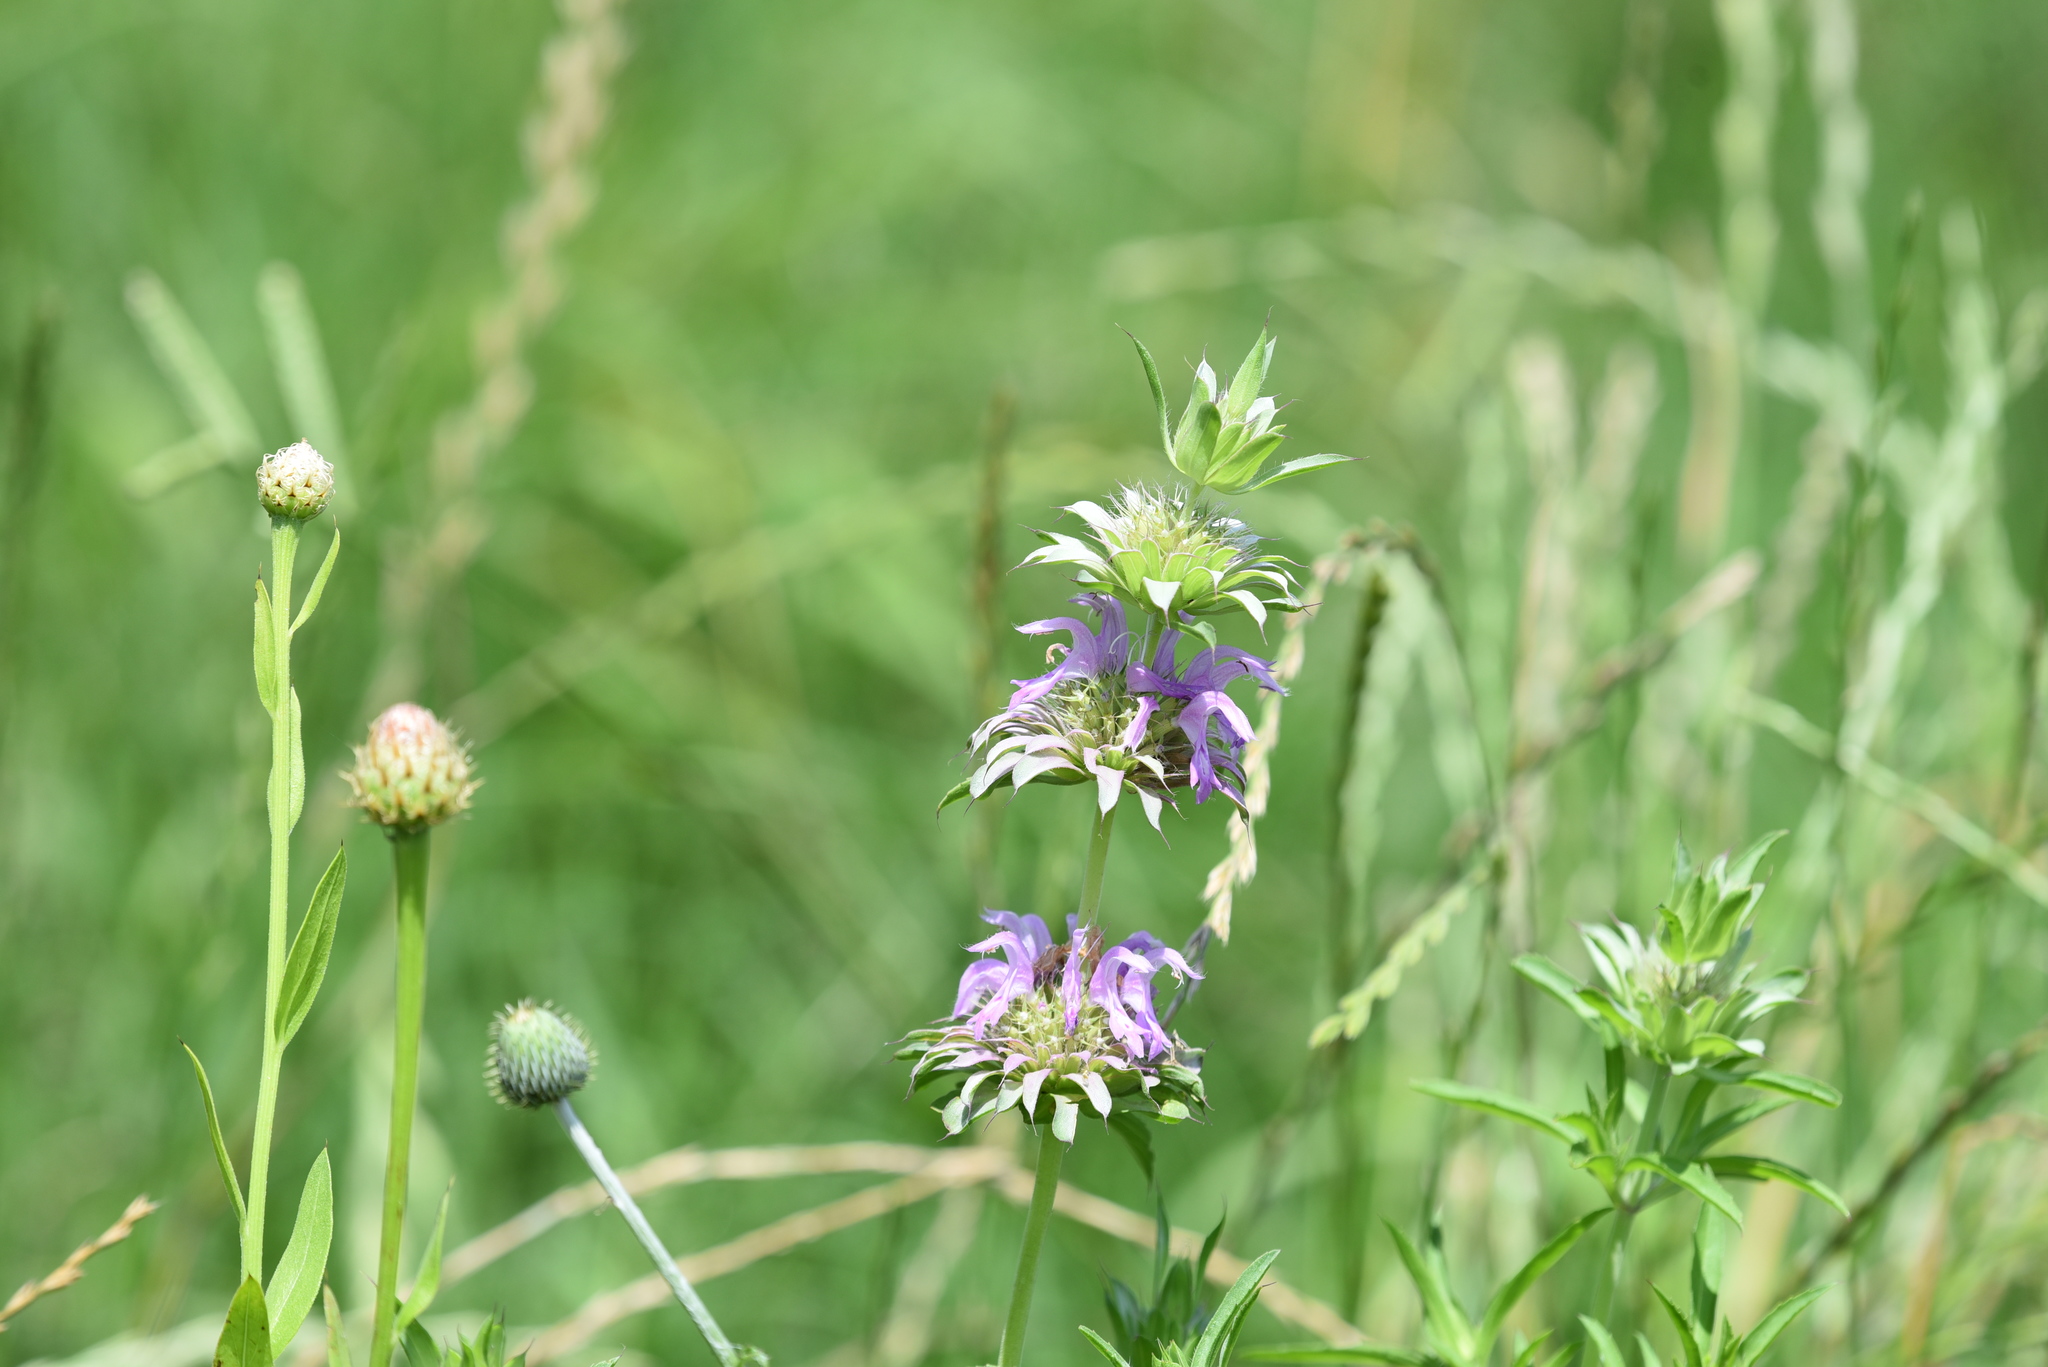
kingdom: Plantae
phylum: Tracheophyta
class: Magnoliopsida
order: Lamiales
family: Lamiaceae
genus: Monarda
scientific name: Monarda citriodora
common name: Lemon beebalm
